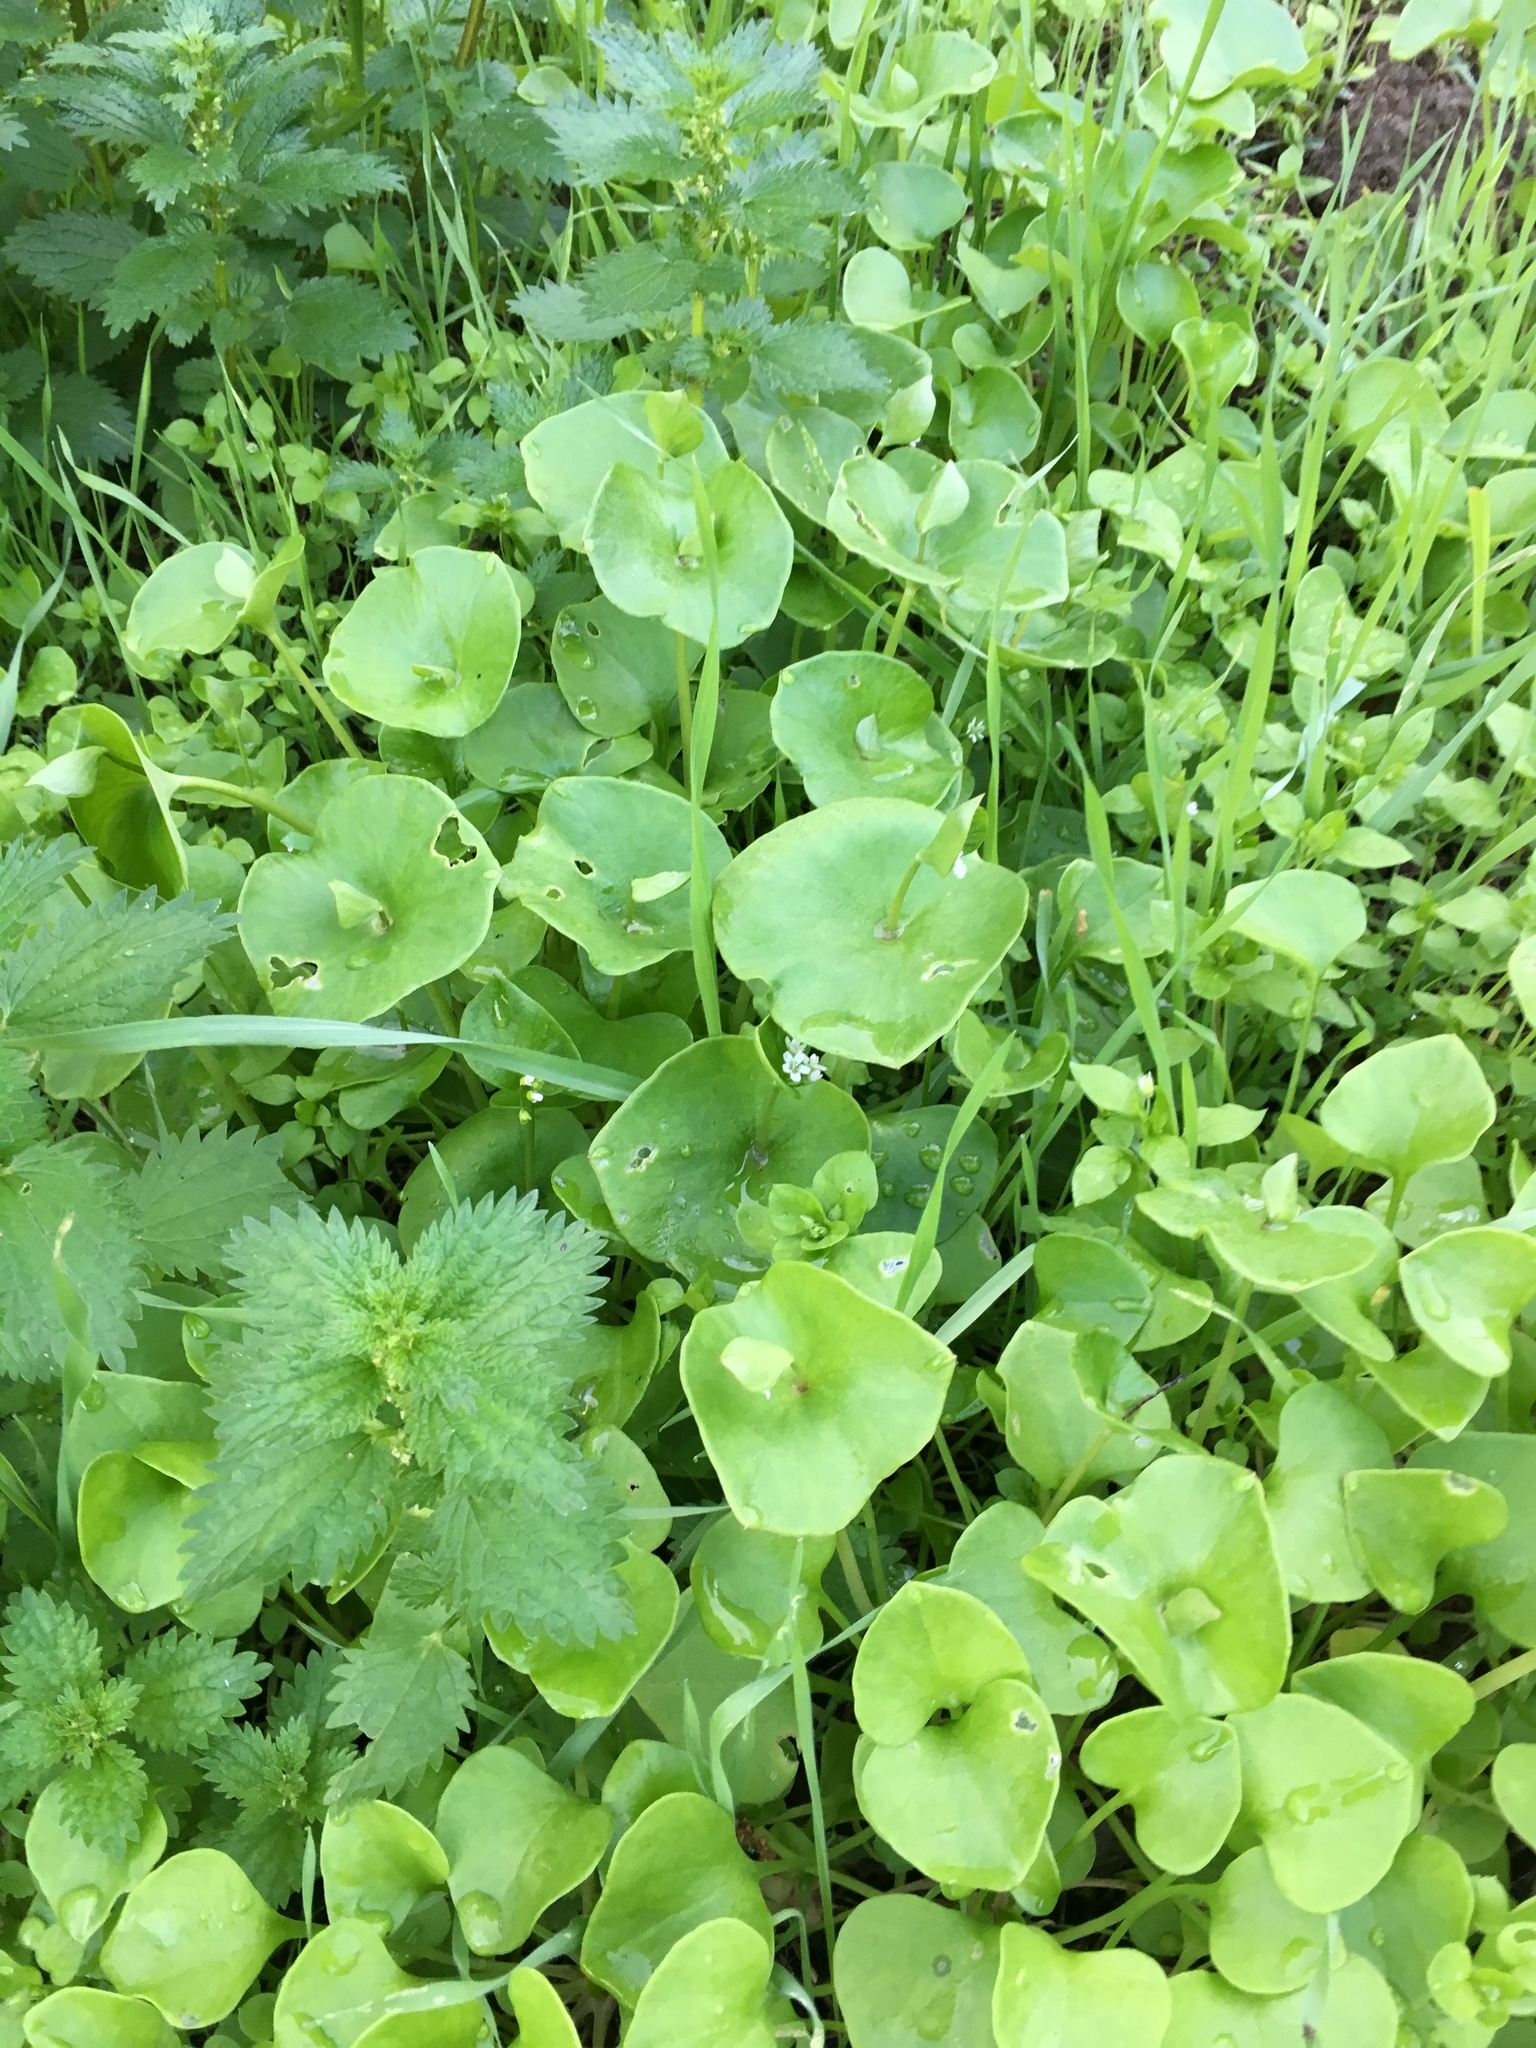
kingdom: Plantae
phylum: Tracheophyta
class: Magnoliopsida
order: Caryophyllales
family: Montiaceae
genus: Claytonia
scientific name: Claytonia perfoliata
